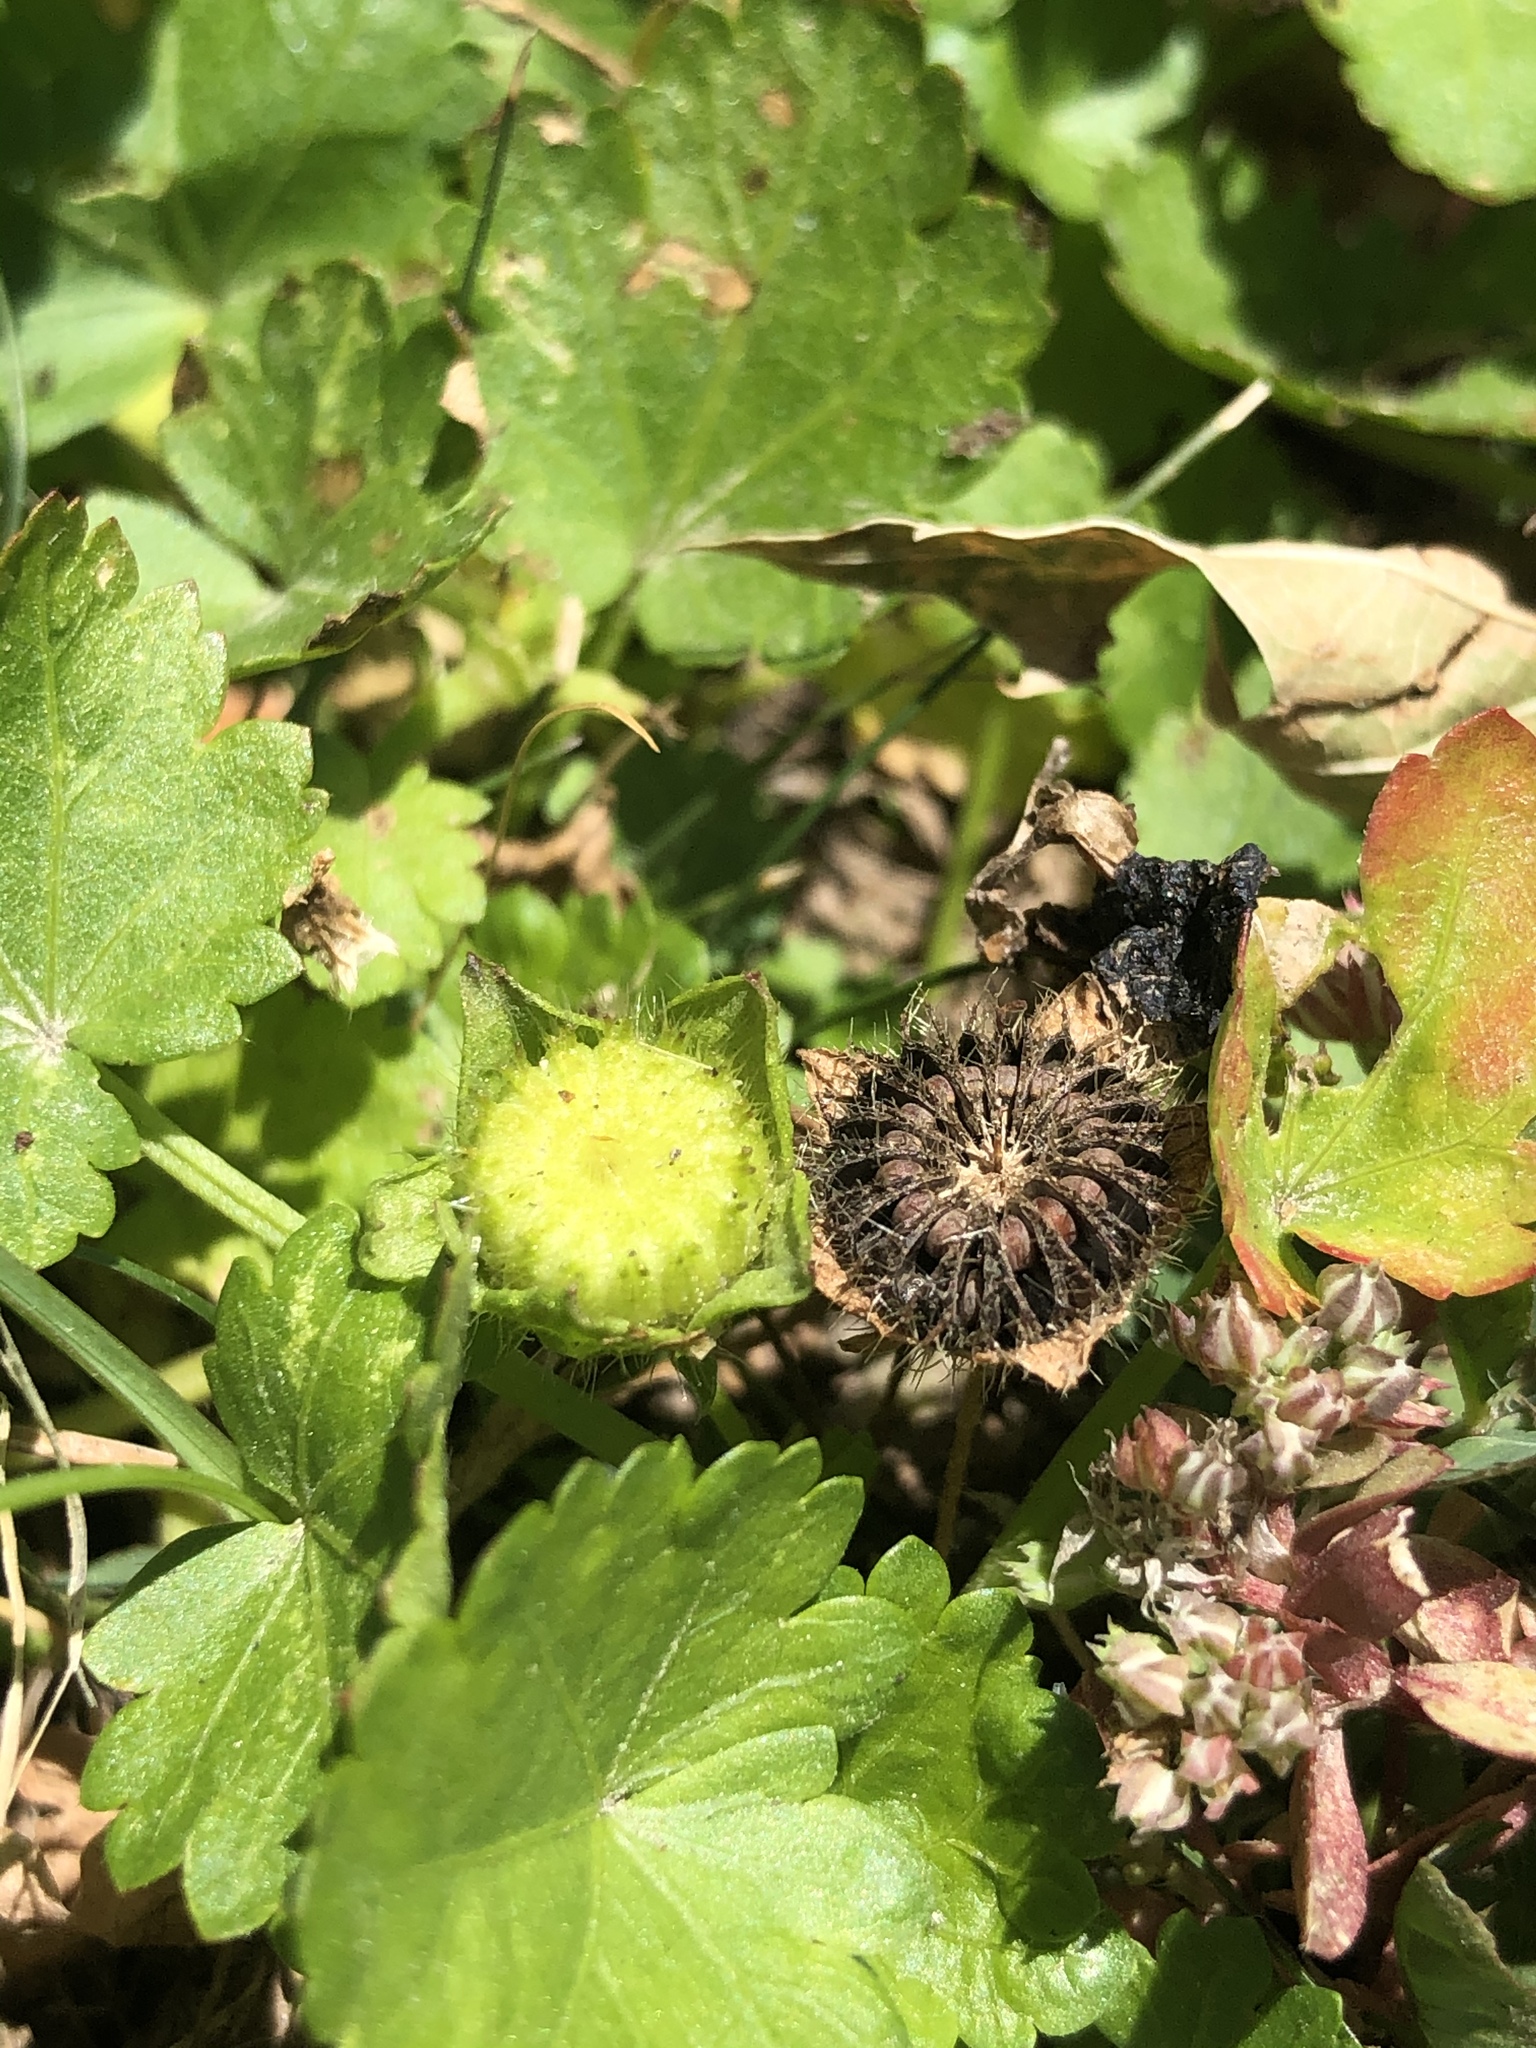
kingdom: Plantae
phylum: Tracheophyta
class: Magnoliopsida
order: Malvales
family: Malvaceae
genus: Modiola
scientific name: Modiola caroliniana
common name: Carolina bristlemallow
